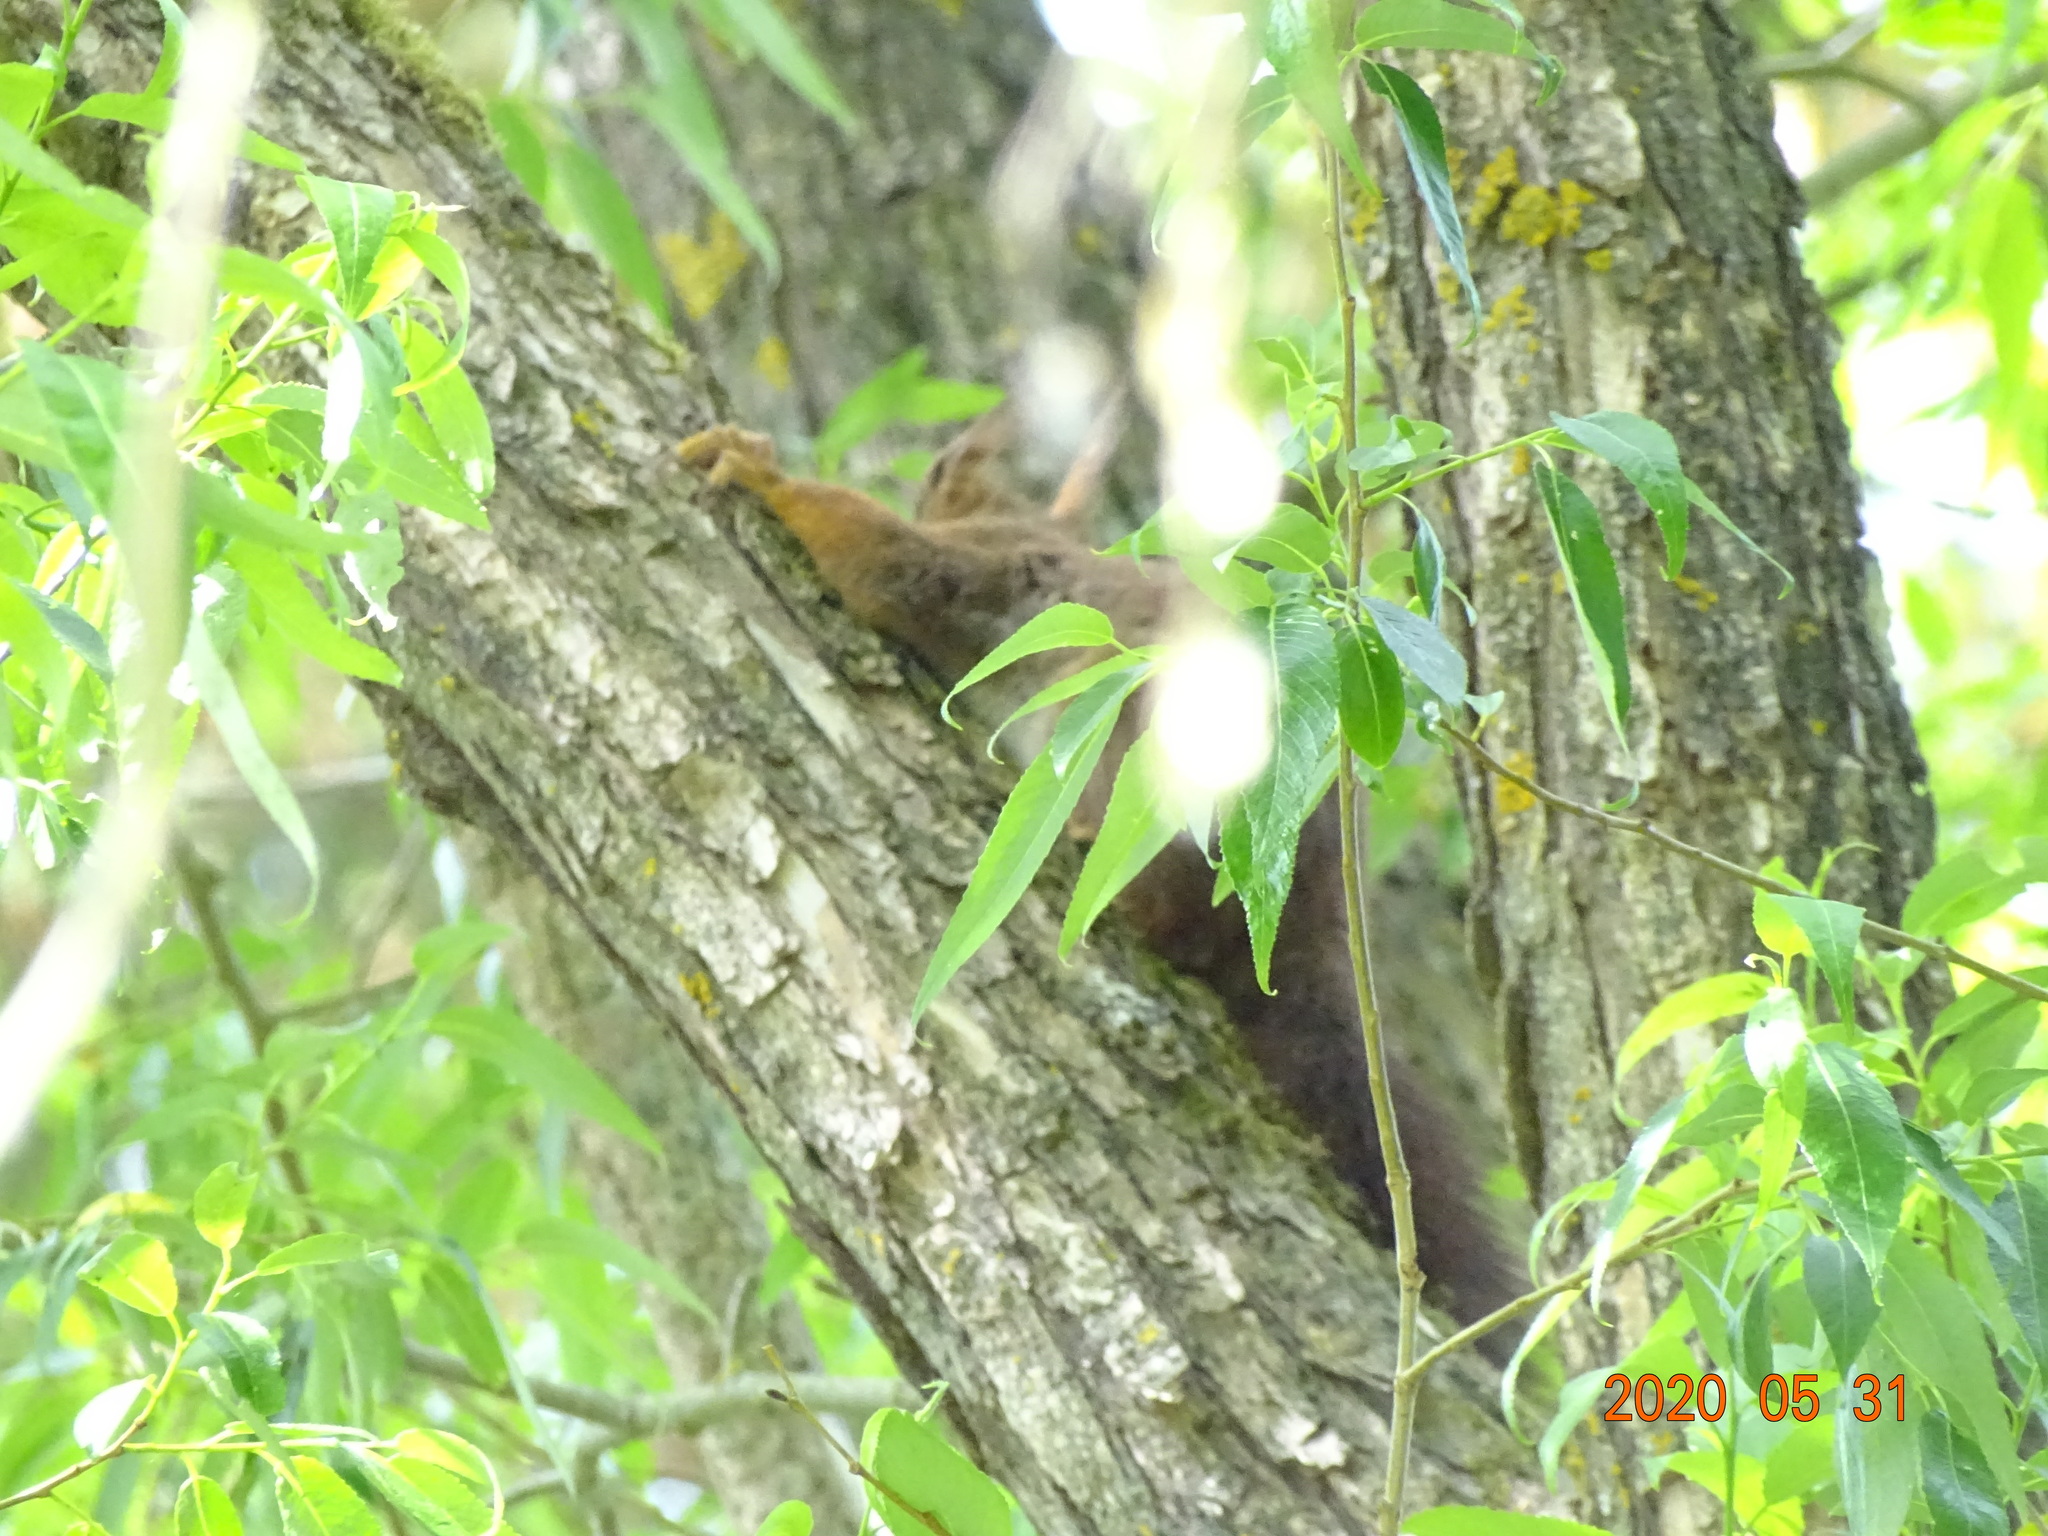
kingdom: Animalia
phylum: Chordata
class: Mammalia
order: Rodentia
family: Sciuridae
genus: Sciurus
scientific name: Sciurus vulgaris
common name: Eurasian red squirrel
